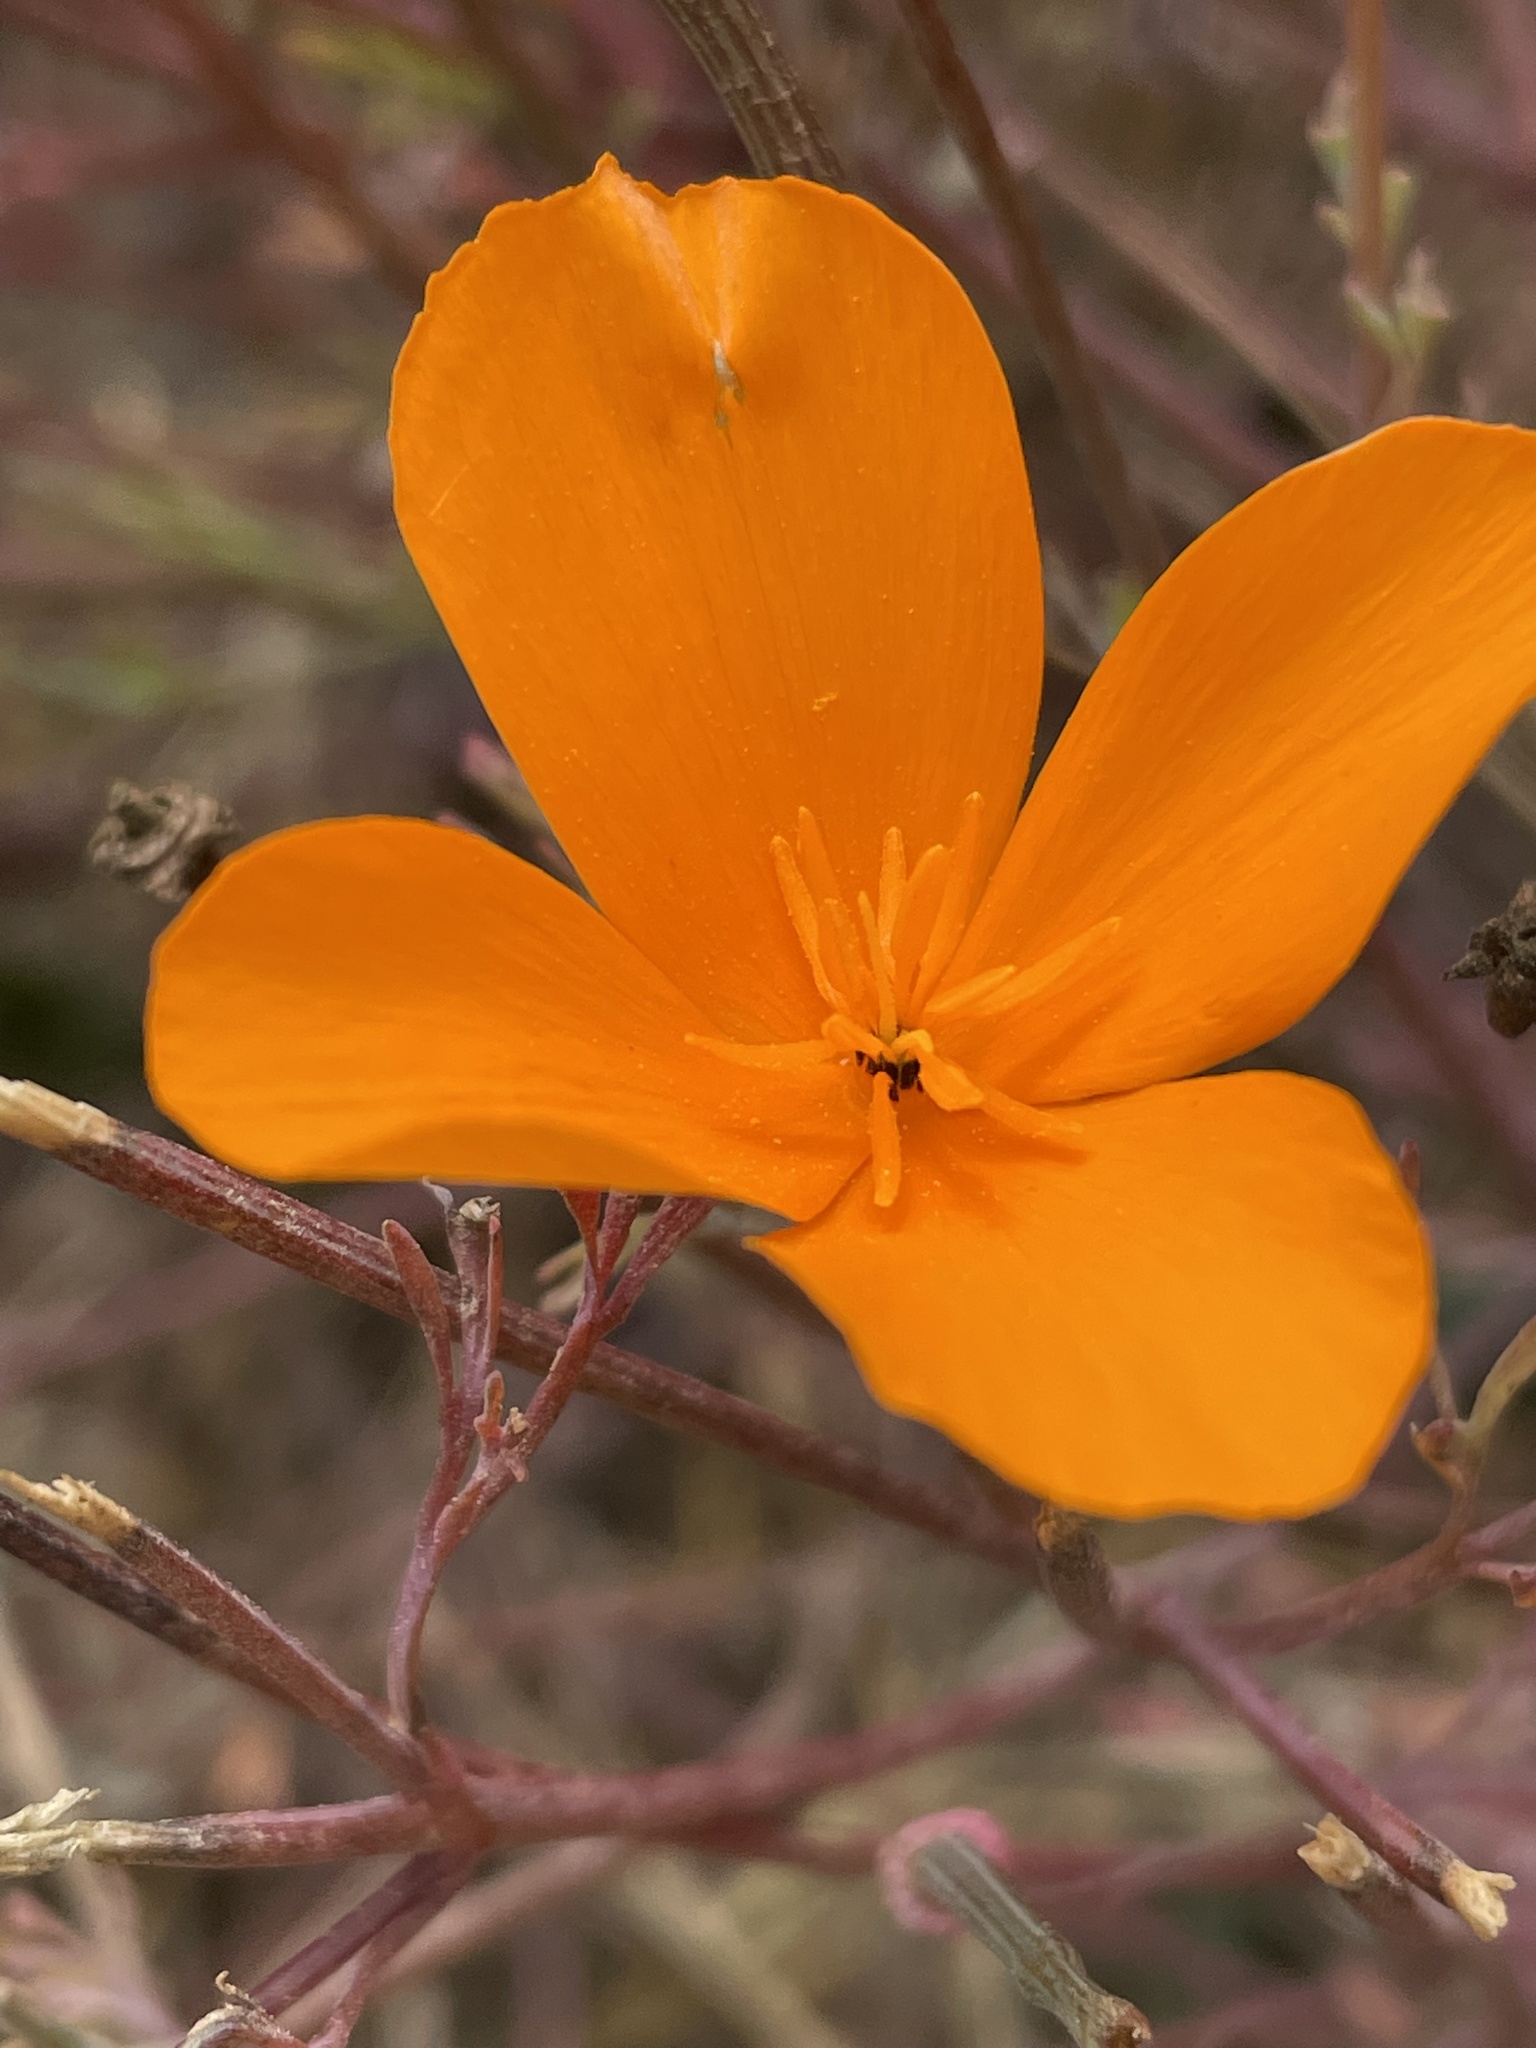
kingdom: Plantae
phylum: Tracheophyta
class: Magnoliopsida
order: Ranunculales
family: Papaveraceae
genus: Eschscholzia
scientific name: Eschscholzia californica
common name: California poppy
